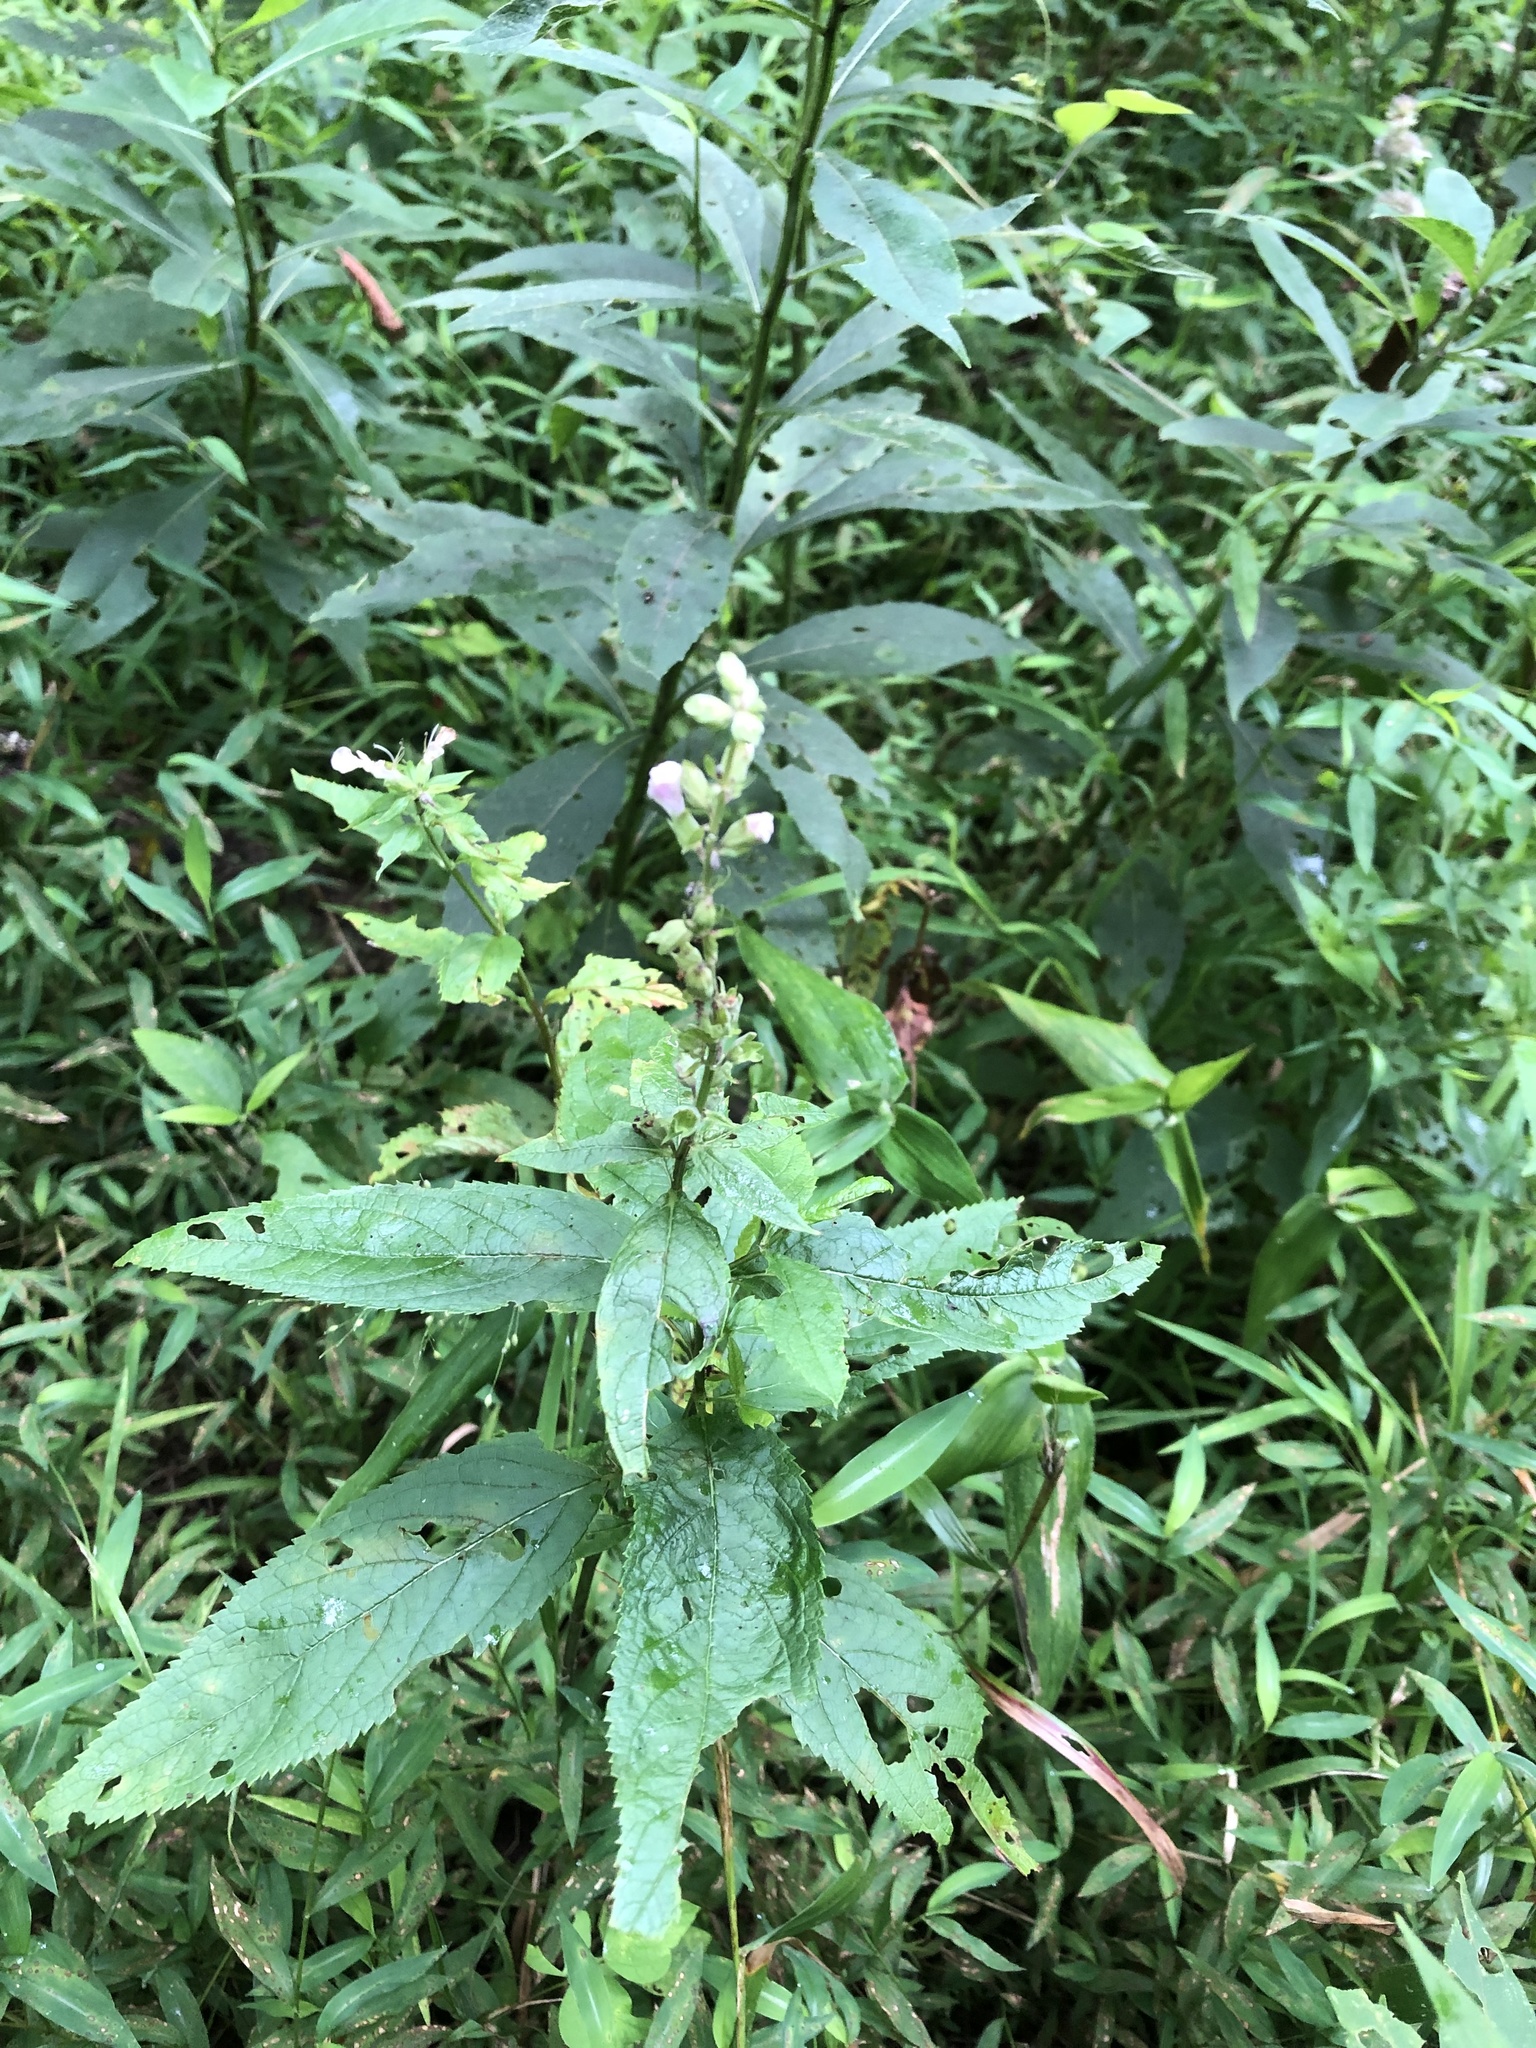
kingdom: Plantae
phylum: Tracheophyta
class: Magnoliopsida
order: Lamiales
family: Lamiaceae
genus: Teucrium
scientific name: Teucrium canadense
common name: American germander
